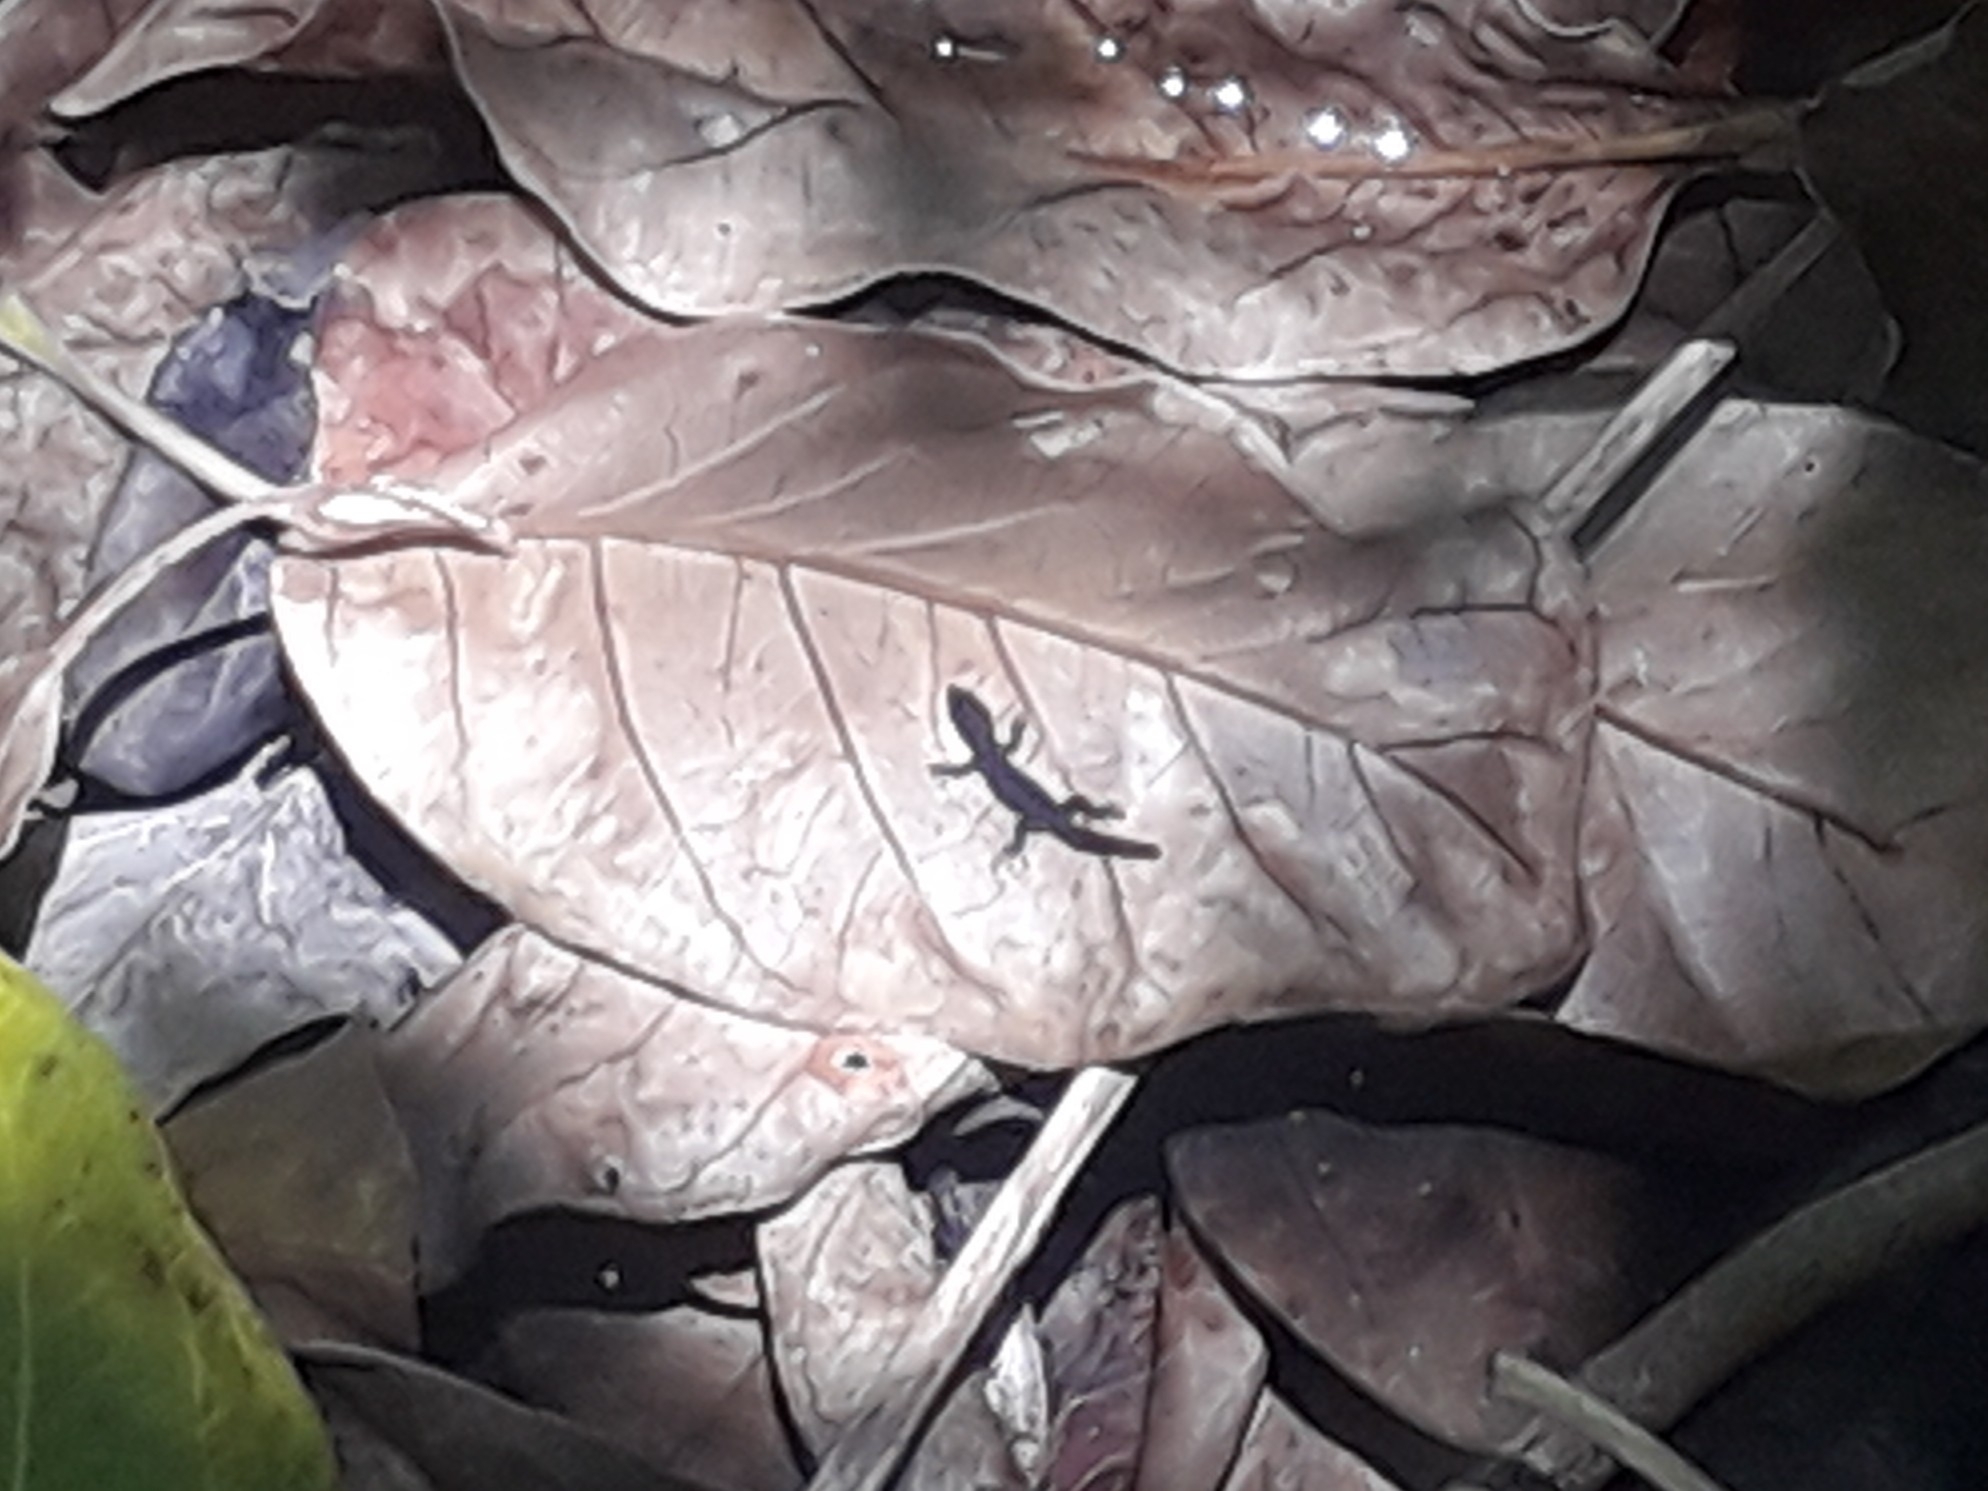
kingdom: Animalia
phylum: Chordata
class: Squamata
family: Sphaerodactylidae
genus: Sphaerodactylus
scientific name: Sphaerodactylus fantasticus
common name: Fantastic least gecko
